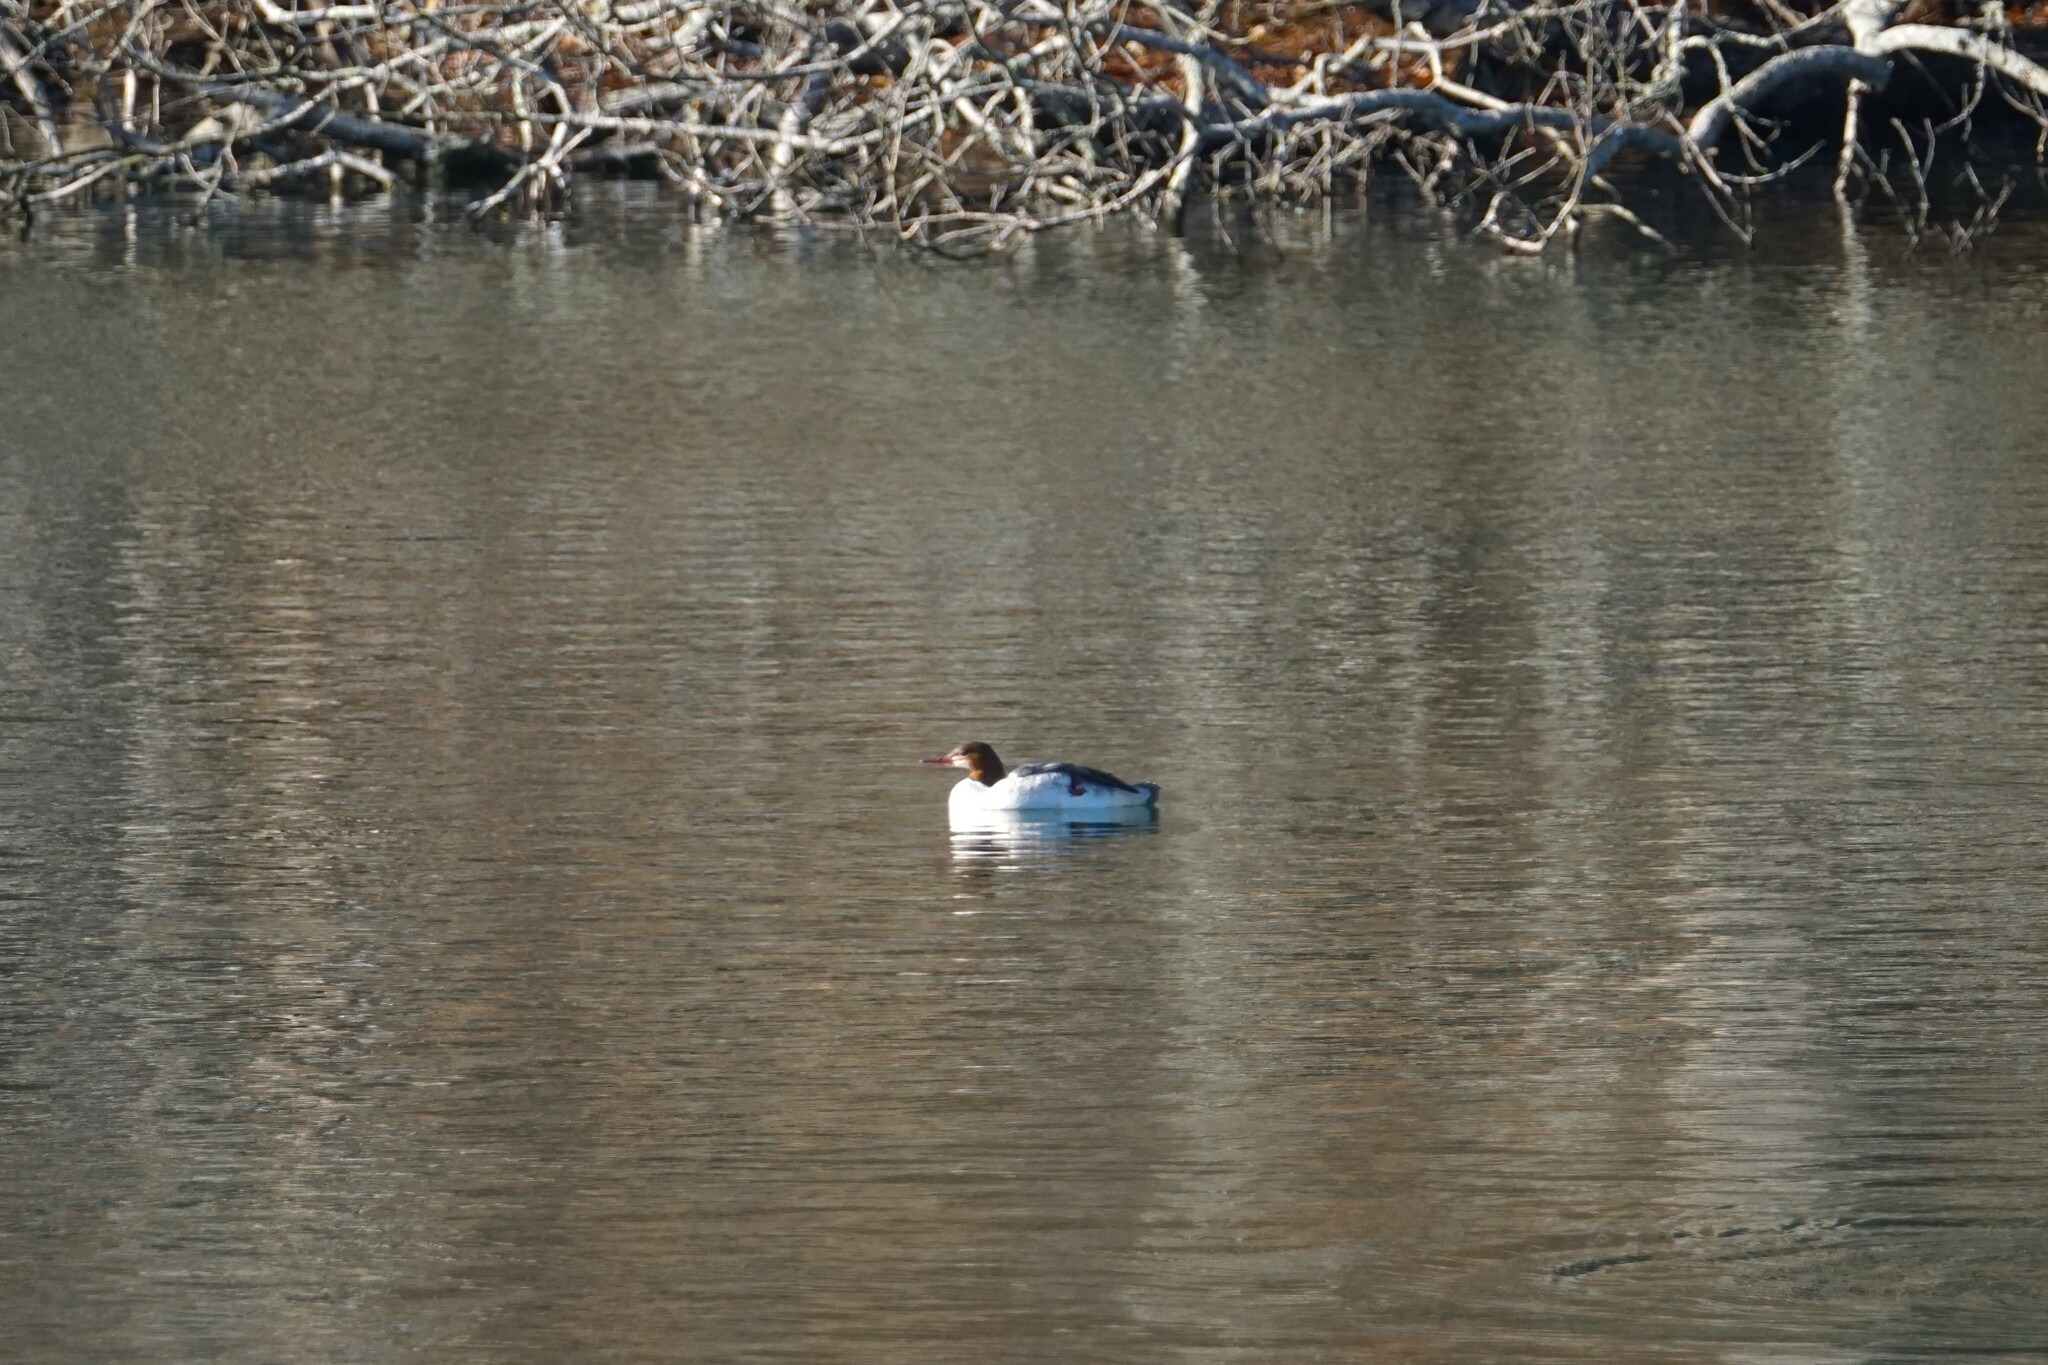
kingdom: Animalia
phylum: Chordata
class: Aves
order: Anseriformes
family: Anatidae
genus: Mergus
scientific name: Mergus merganser
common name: Common merganser
